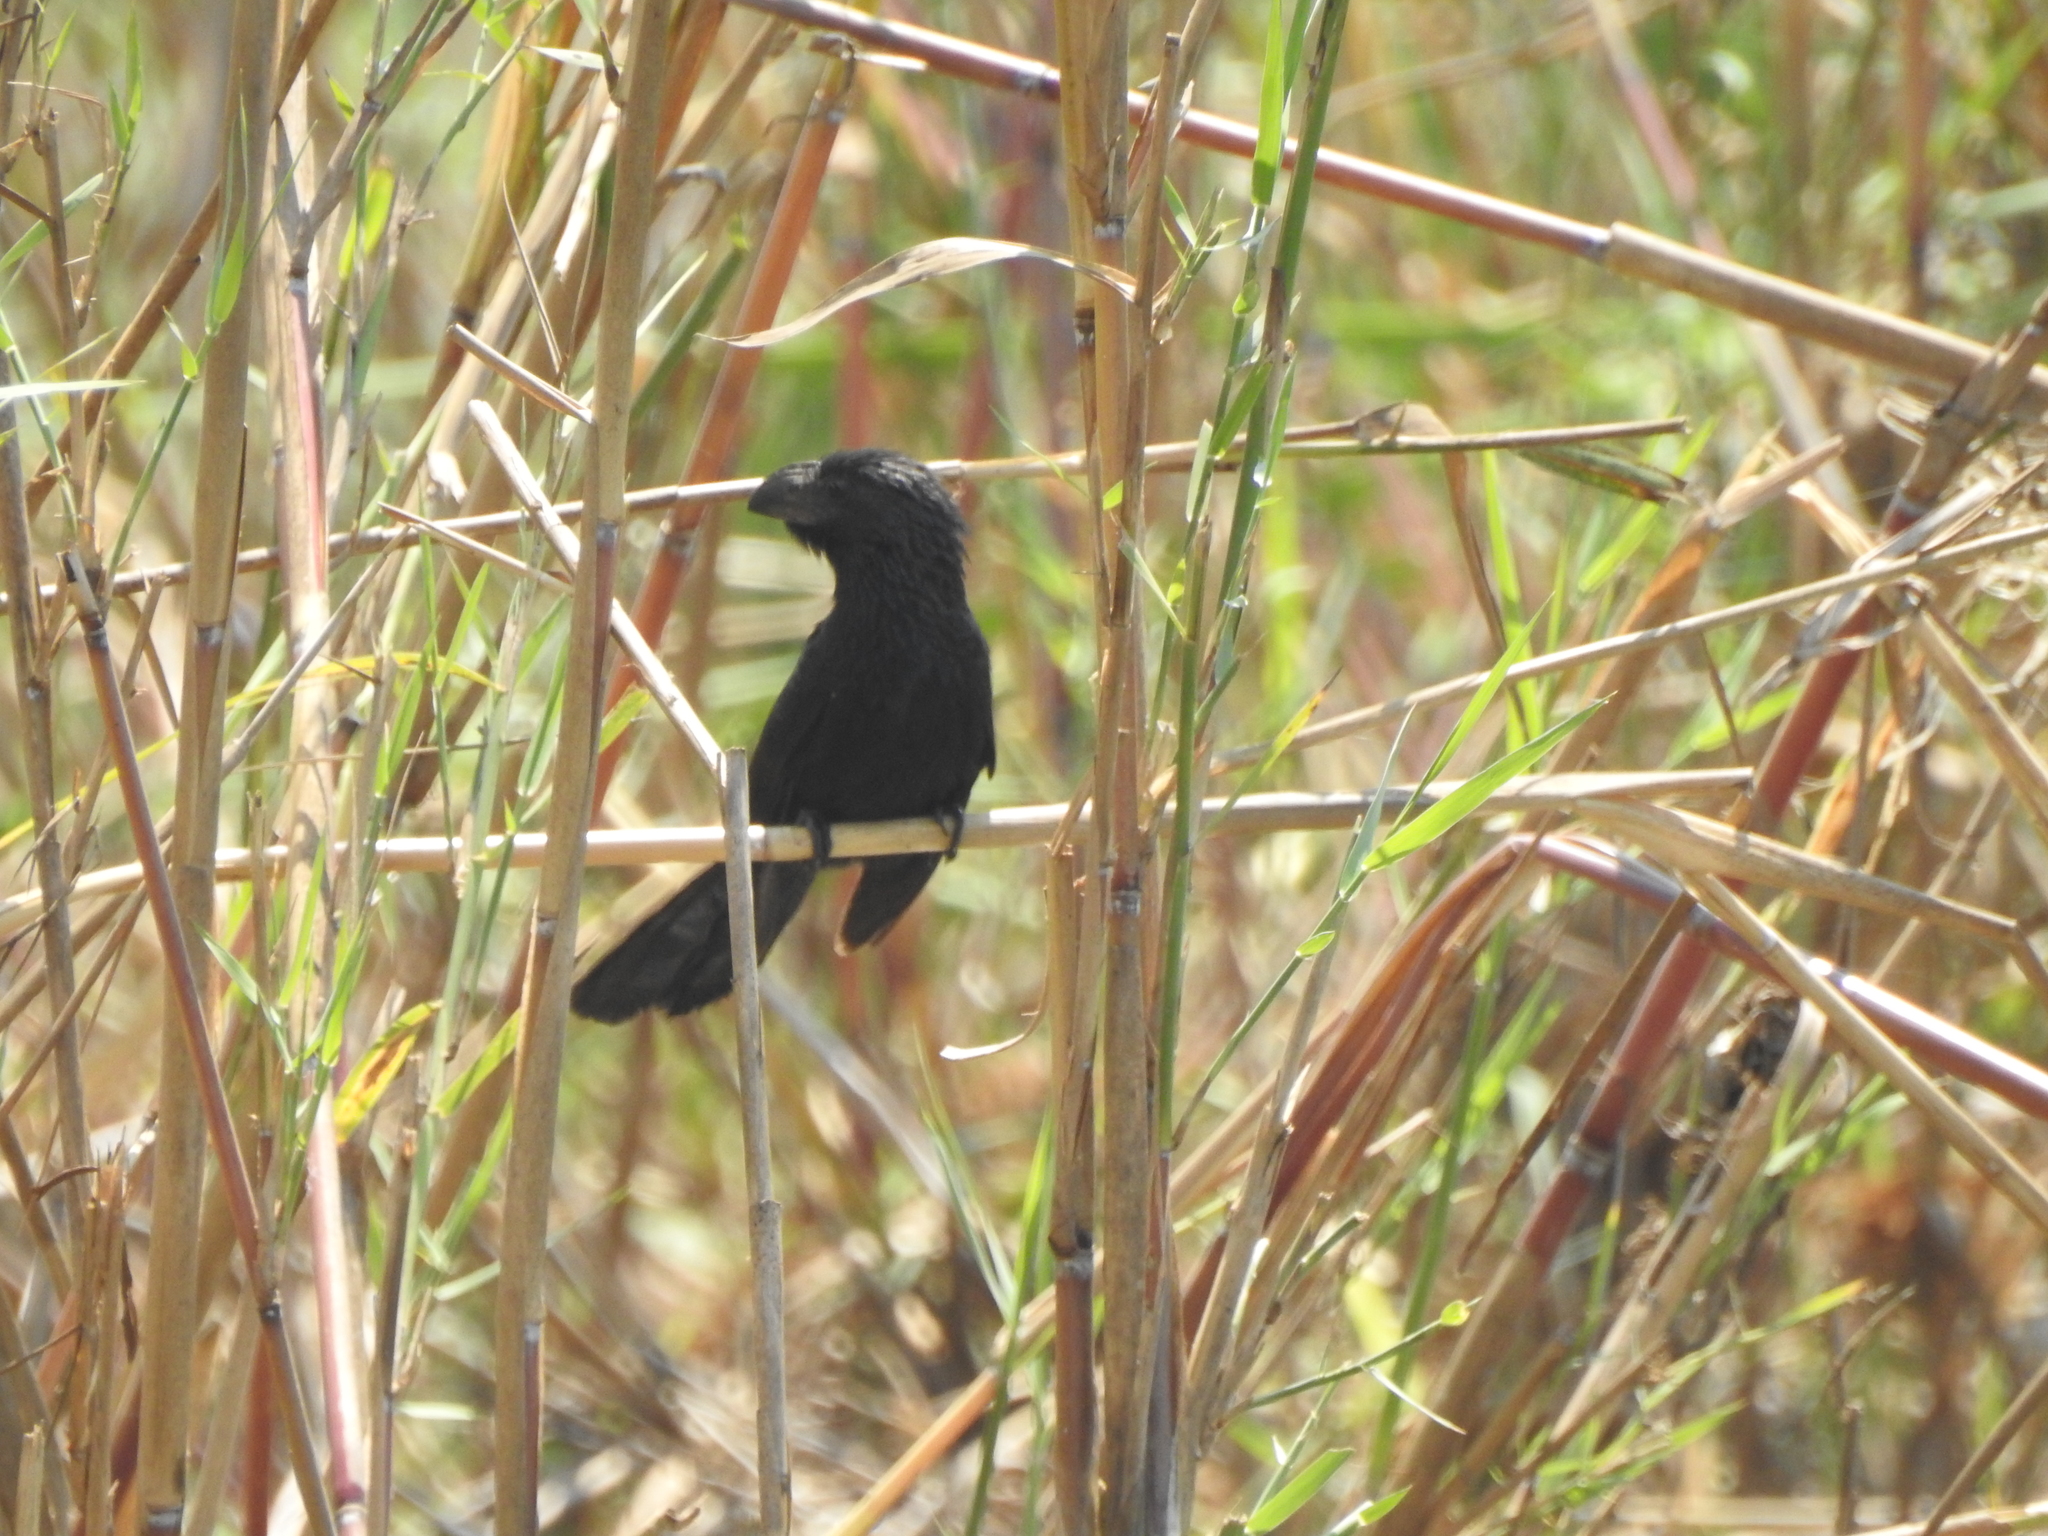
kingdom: Animalia
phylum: Chordata
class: Aves
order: Cuculiformes
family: Cuculidae
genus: Crotophaga
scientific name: Crotophaga sulcirostris
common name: Groove-billed ani
